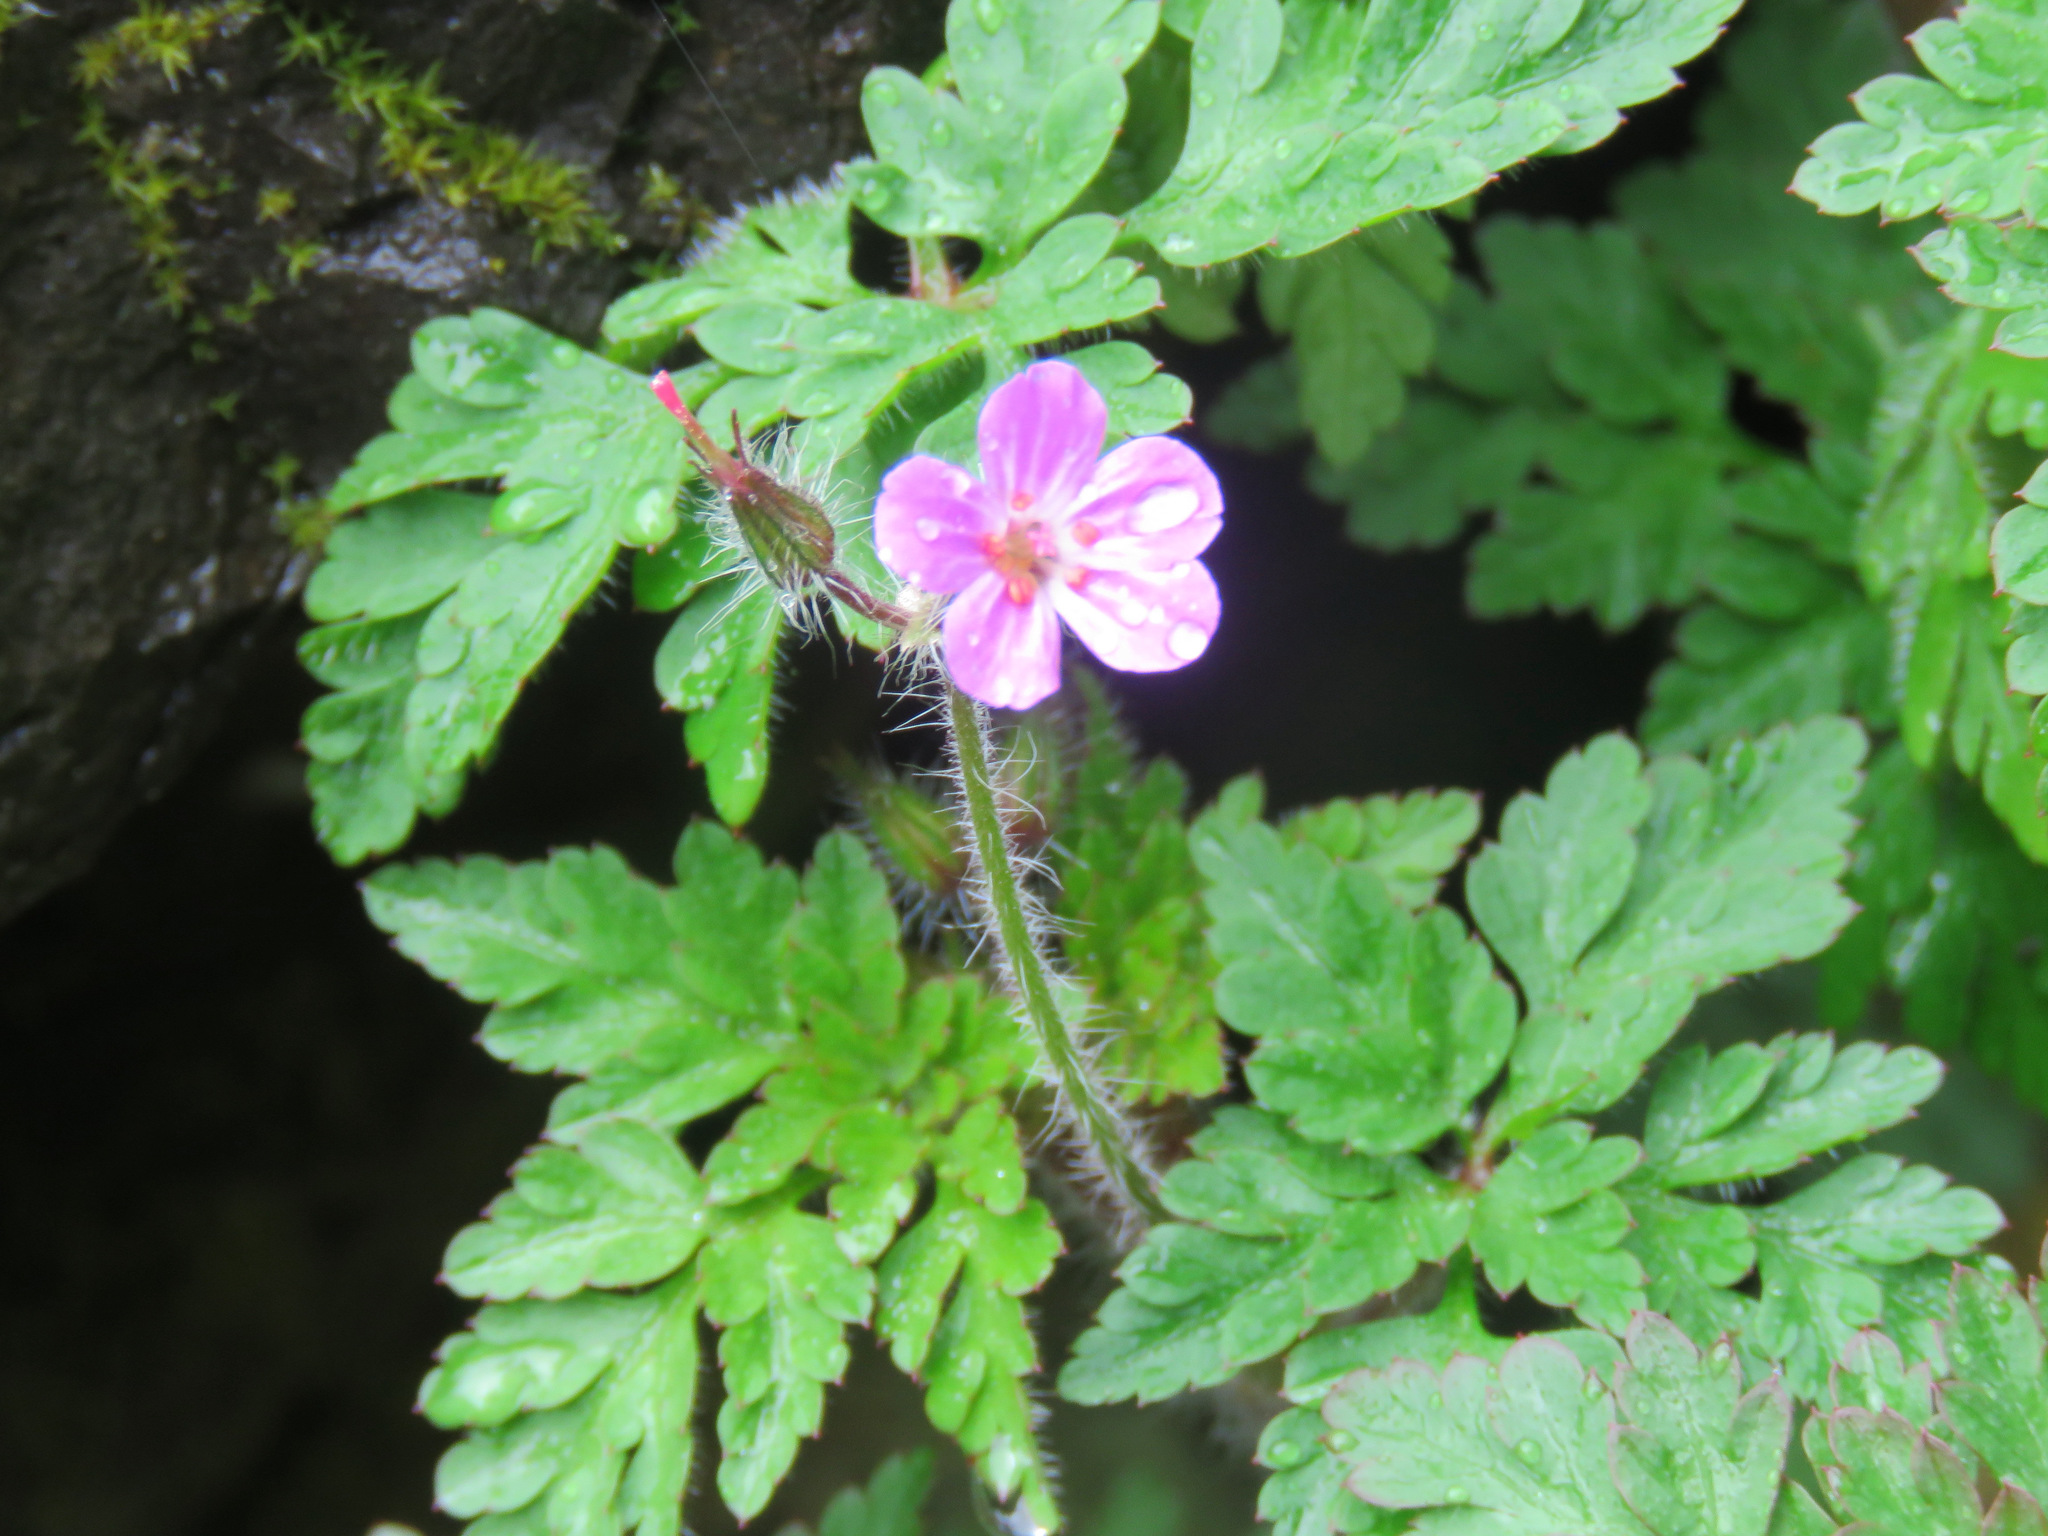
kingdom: Plantae
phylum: Tracheophyta
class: Magnoliopsida
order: Geraniales
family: Geraniaceae
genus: Geranium
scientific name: Geranium robertianum
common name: Herb-robert
